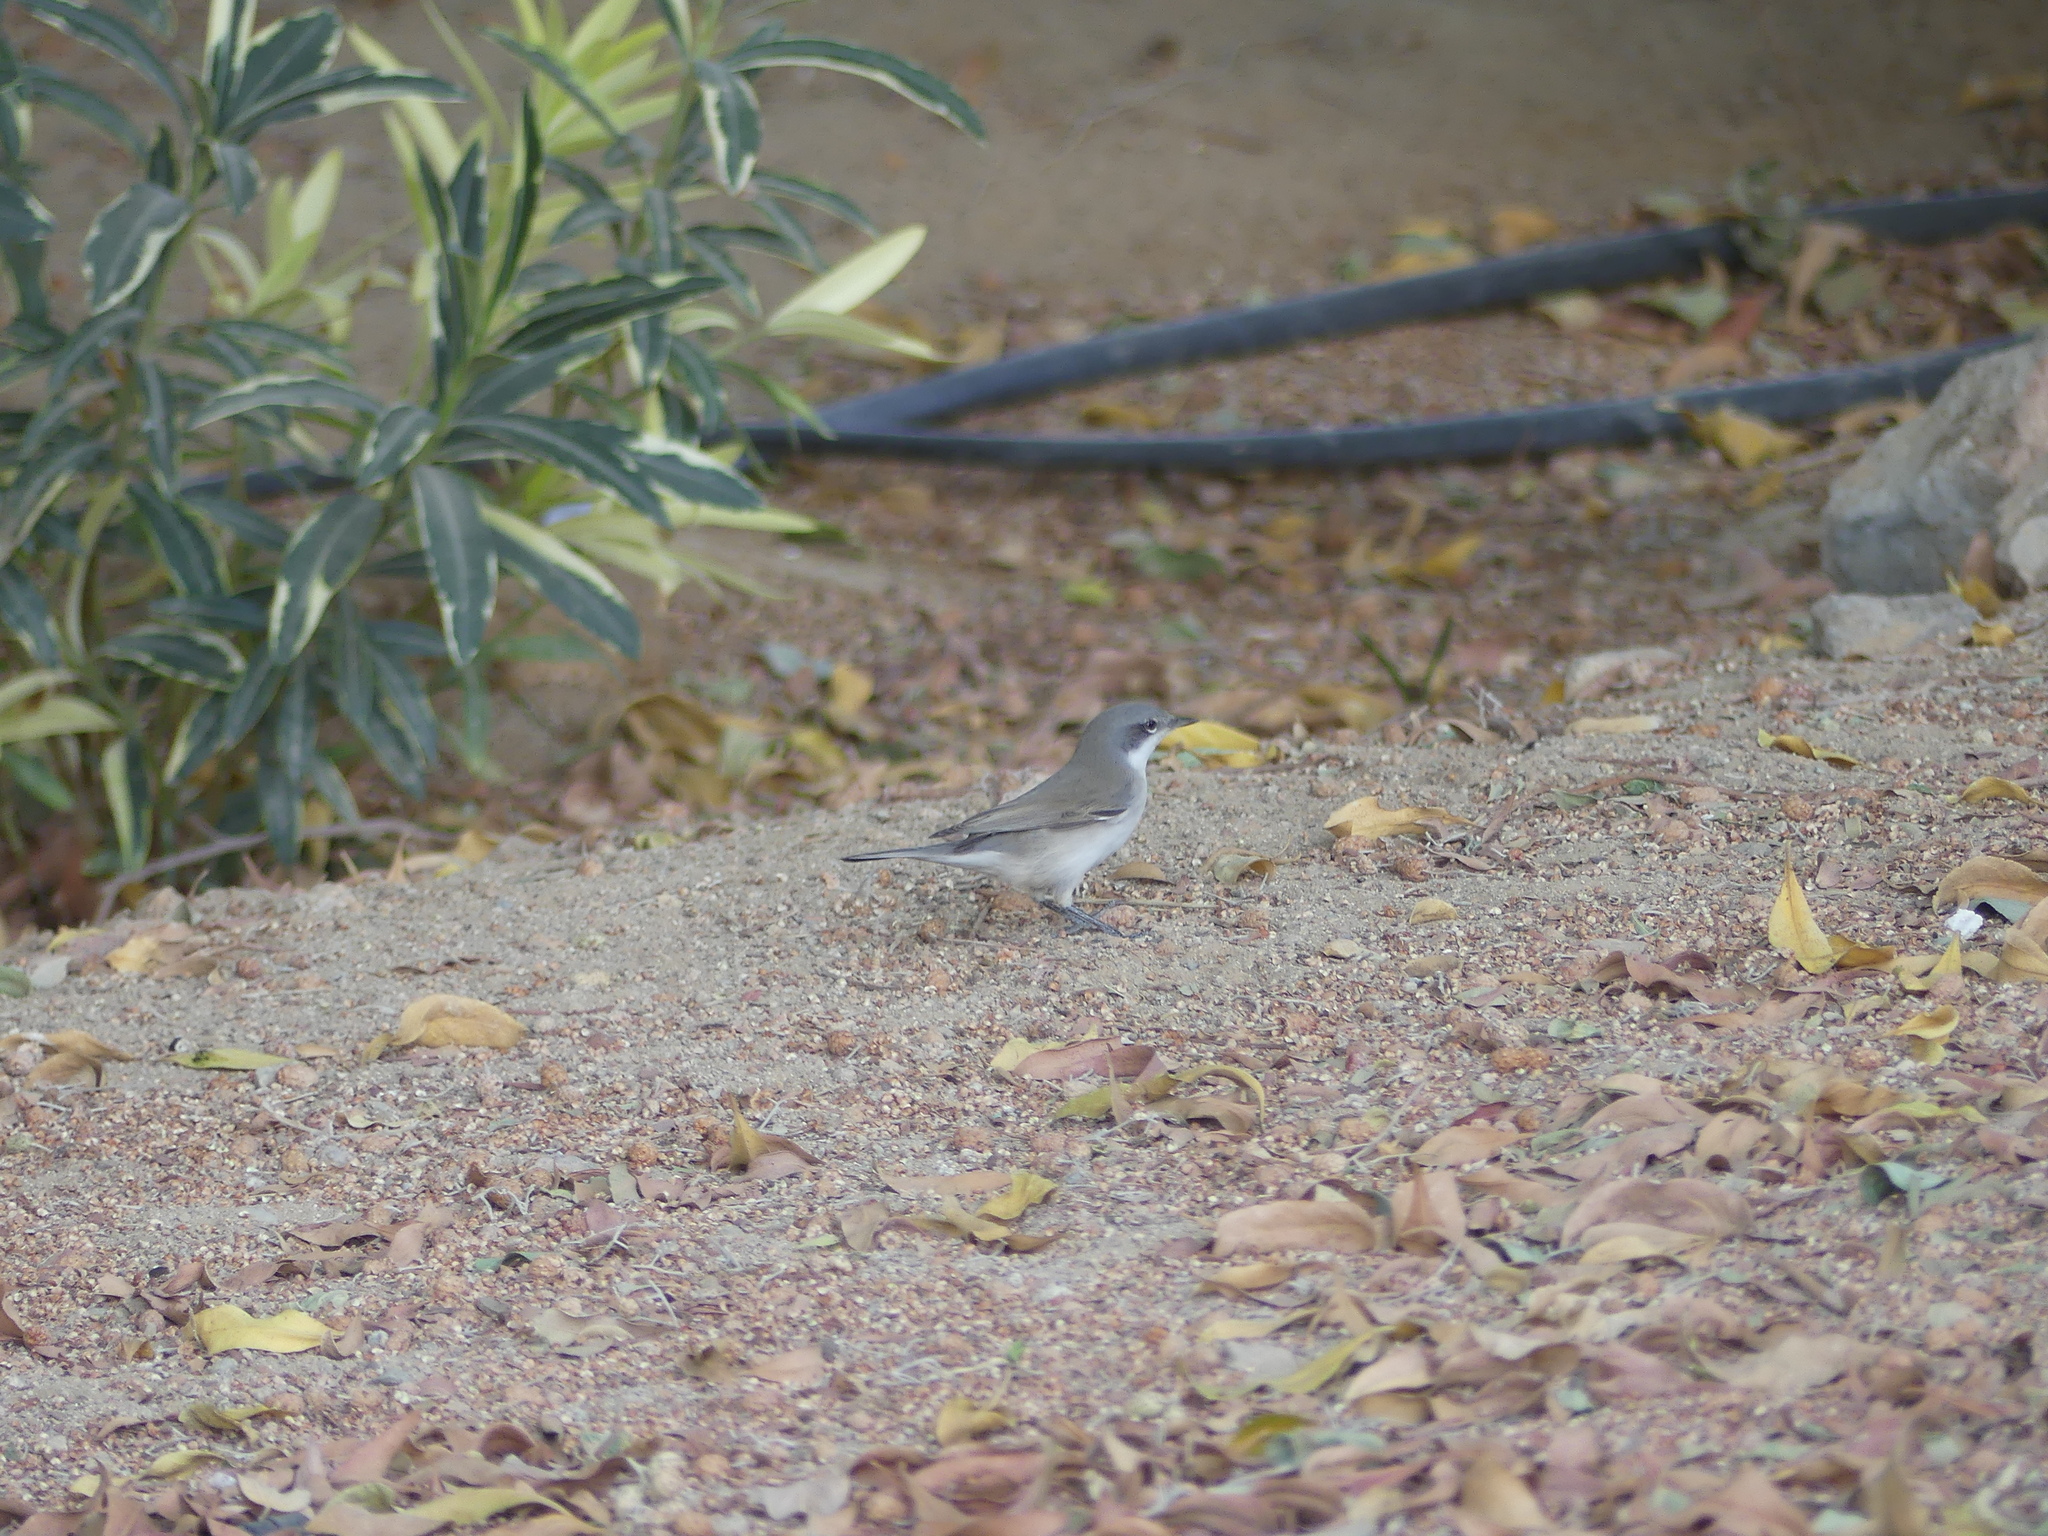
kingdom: Animalia
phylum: Chordata
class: Aves
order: Passeriformes
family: Sylviidae
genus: Sylvia
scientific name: Sylvia curruca
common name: Lesser whitethroat
